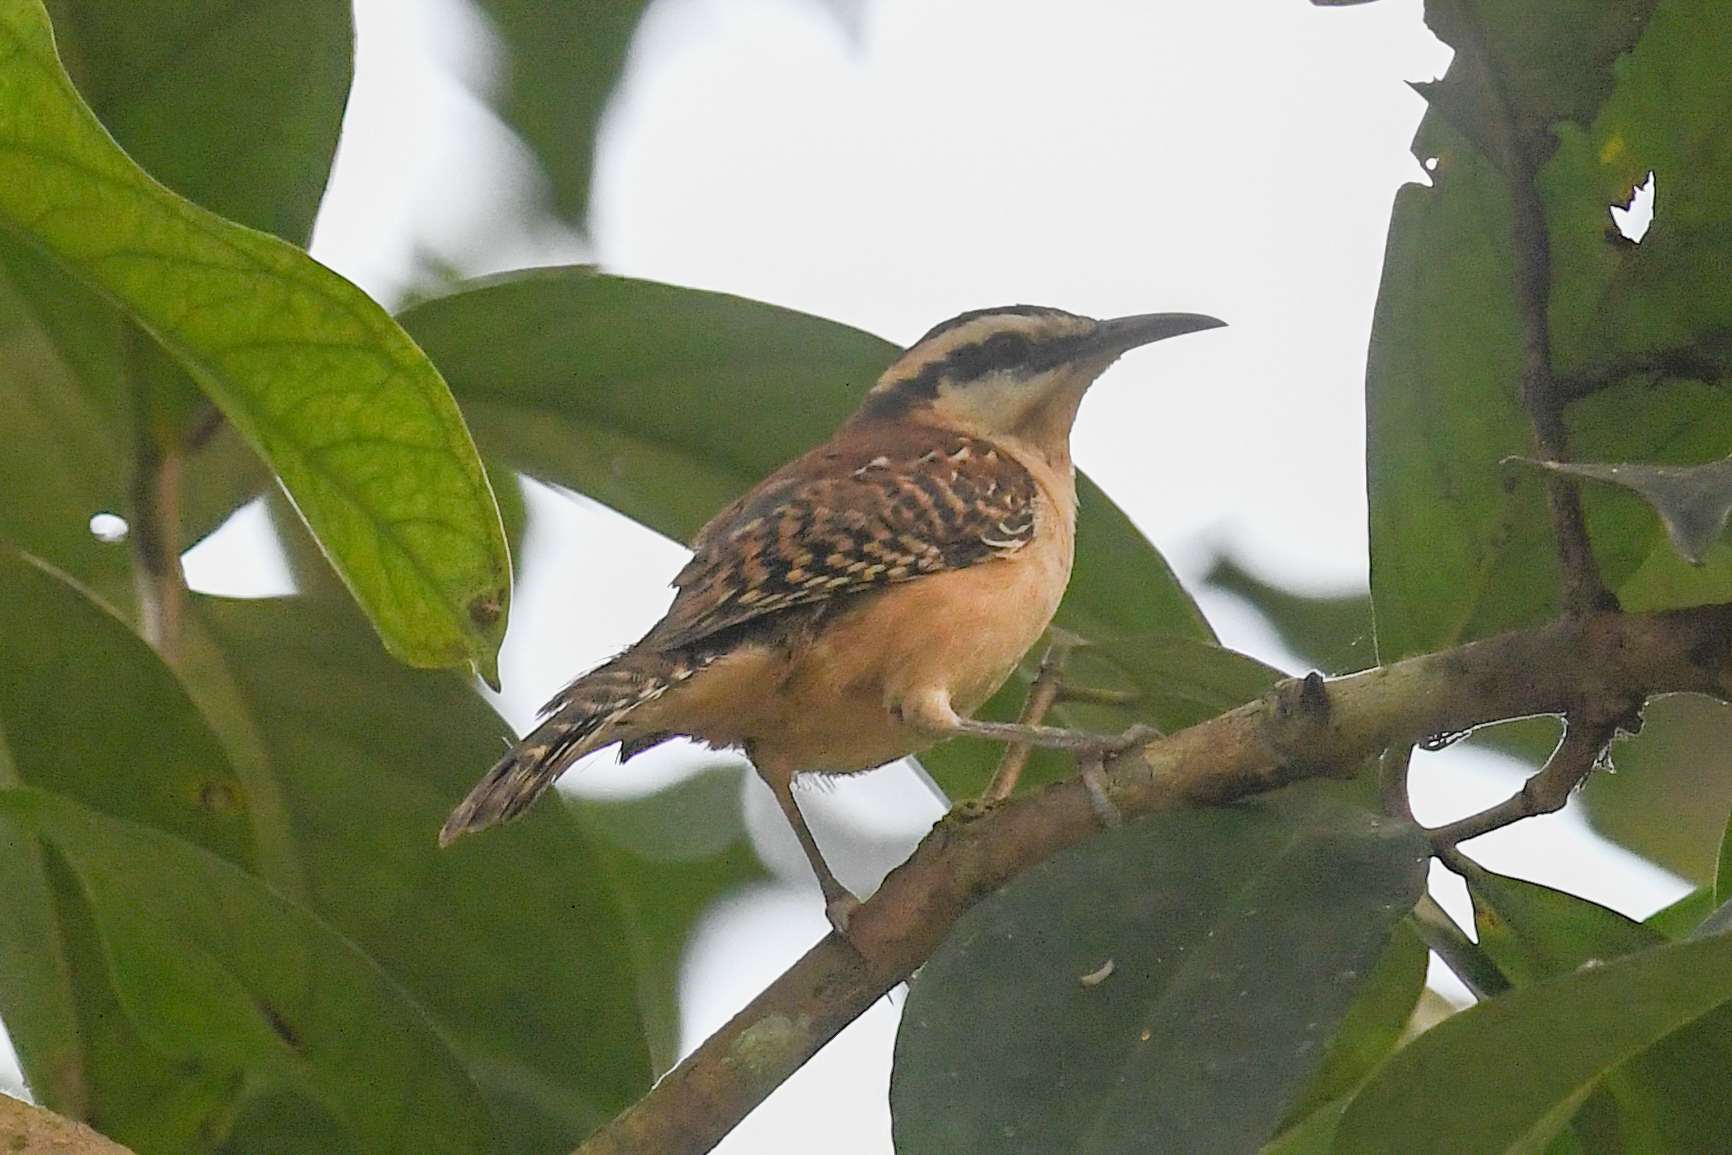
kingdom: Animalia
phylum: Chordata
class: Aves
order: Passeriformes
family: Troglodytidae
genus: Campylorhynchus
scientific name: Campylorhynchus rufinucha
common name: Rufous-naped wren
